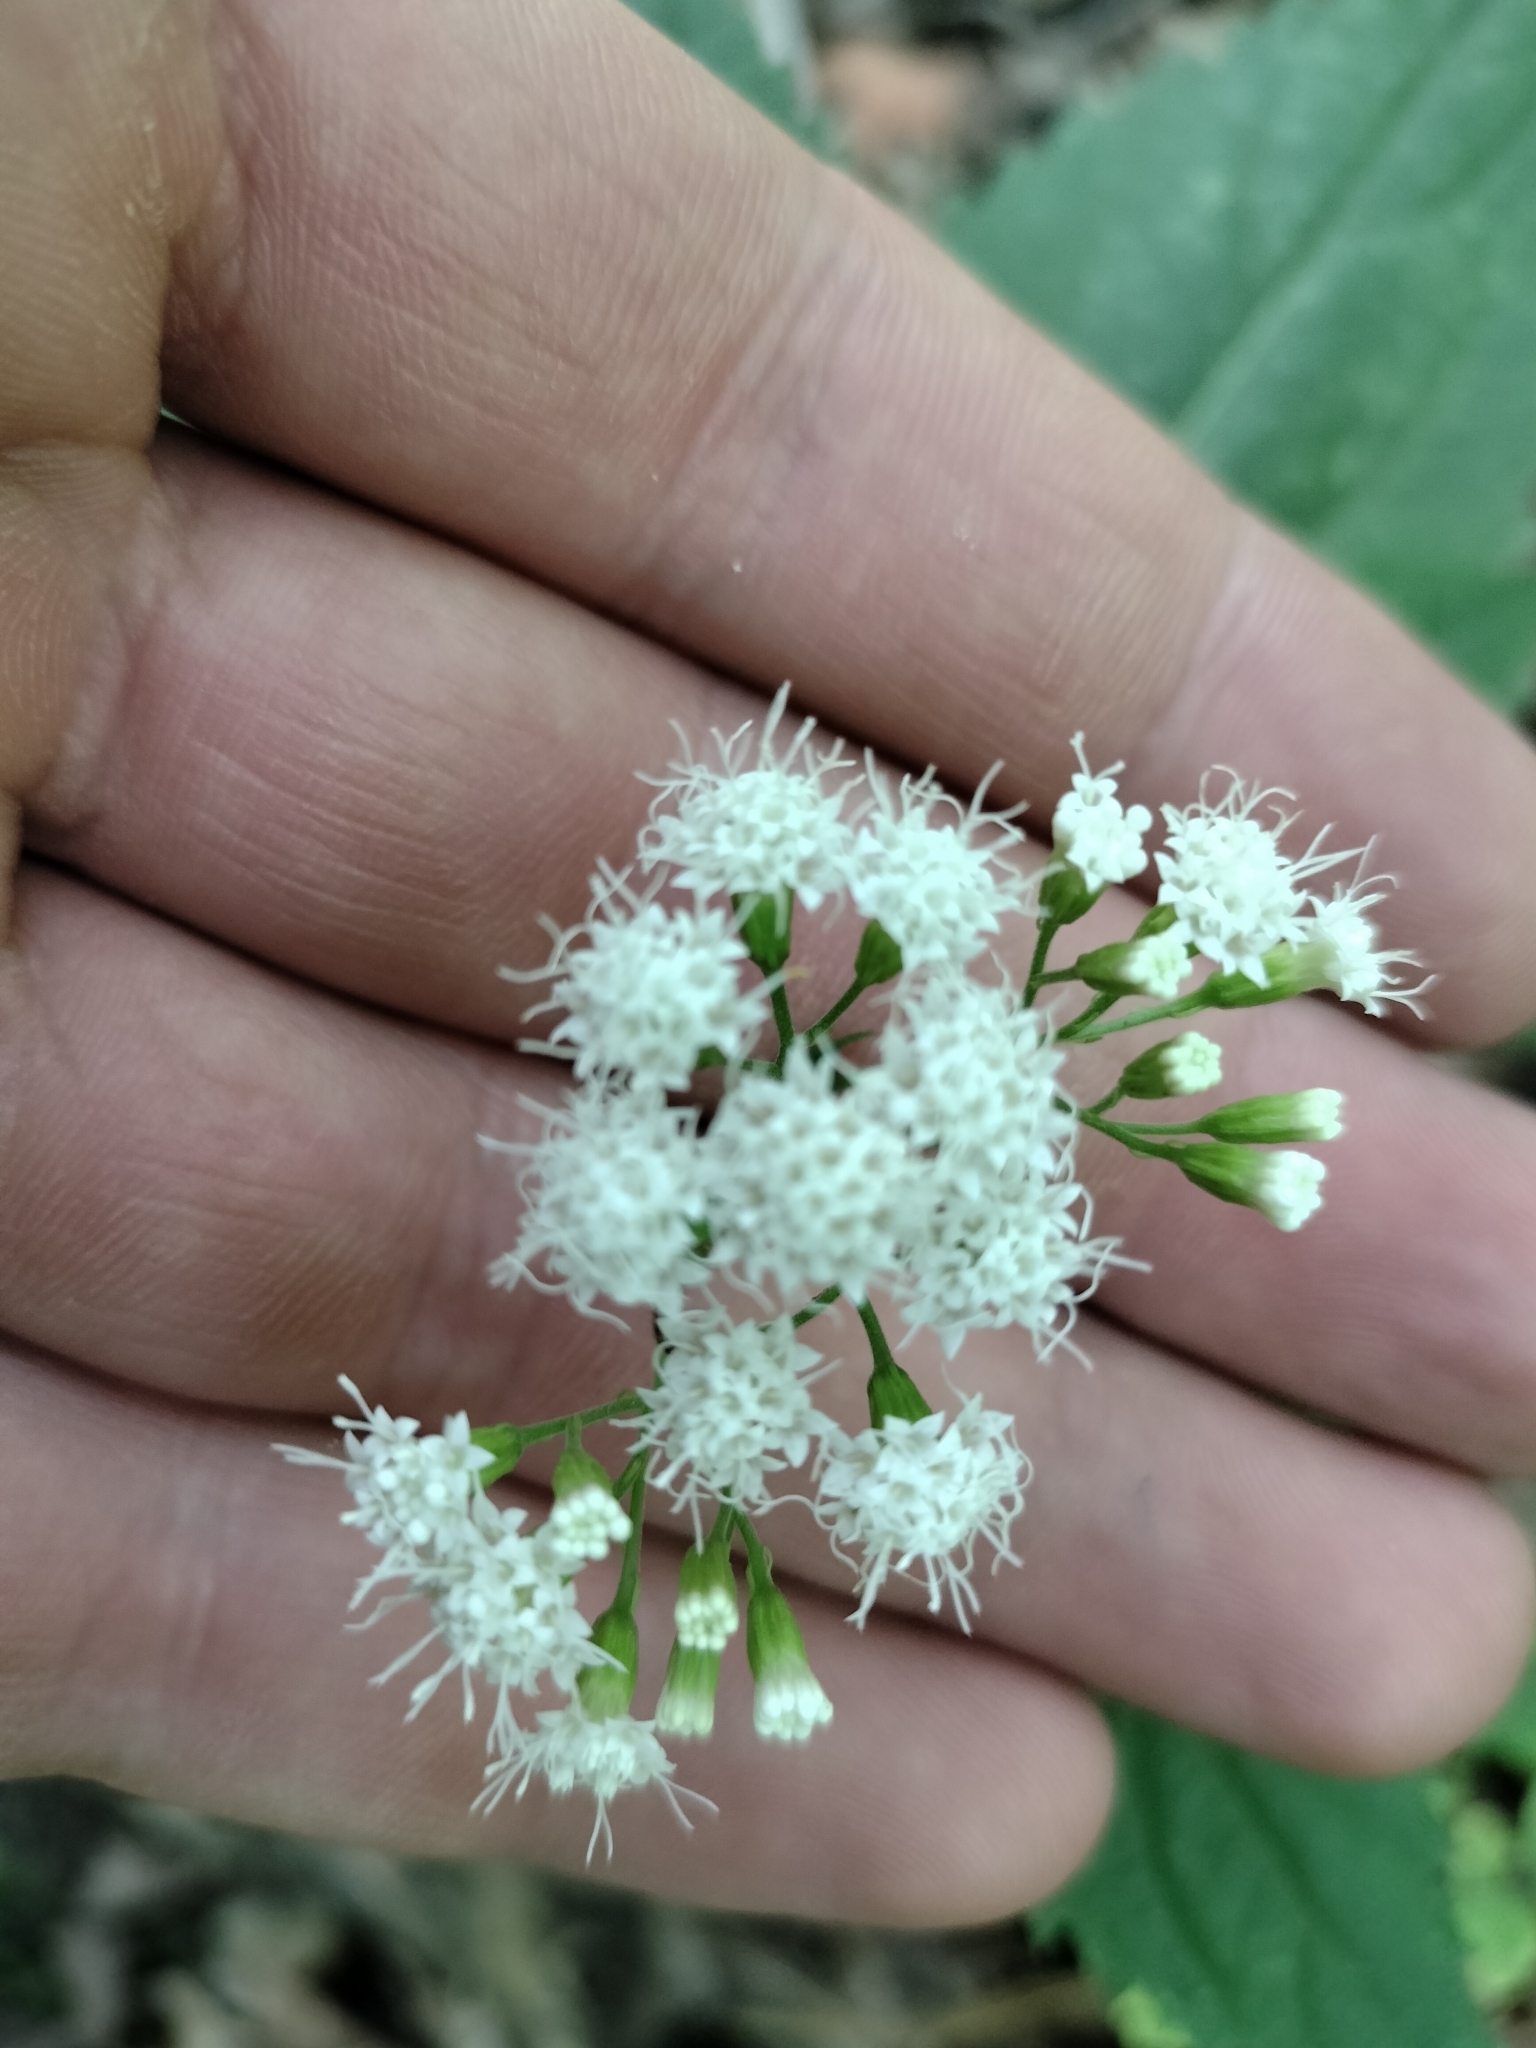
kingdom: Plantae
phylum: Tracheophyta
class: Magnoliopsida
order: Asterales
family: Asteraceae
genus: Ageratina
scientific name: Ageratina altissima
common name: White snakeroot
